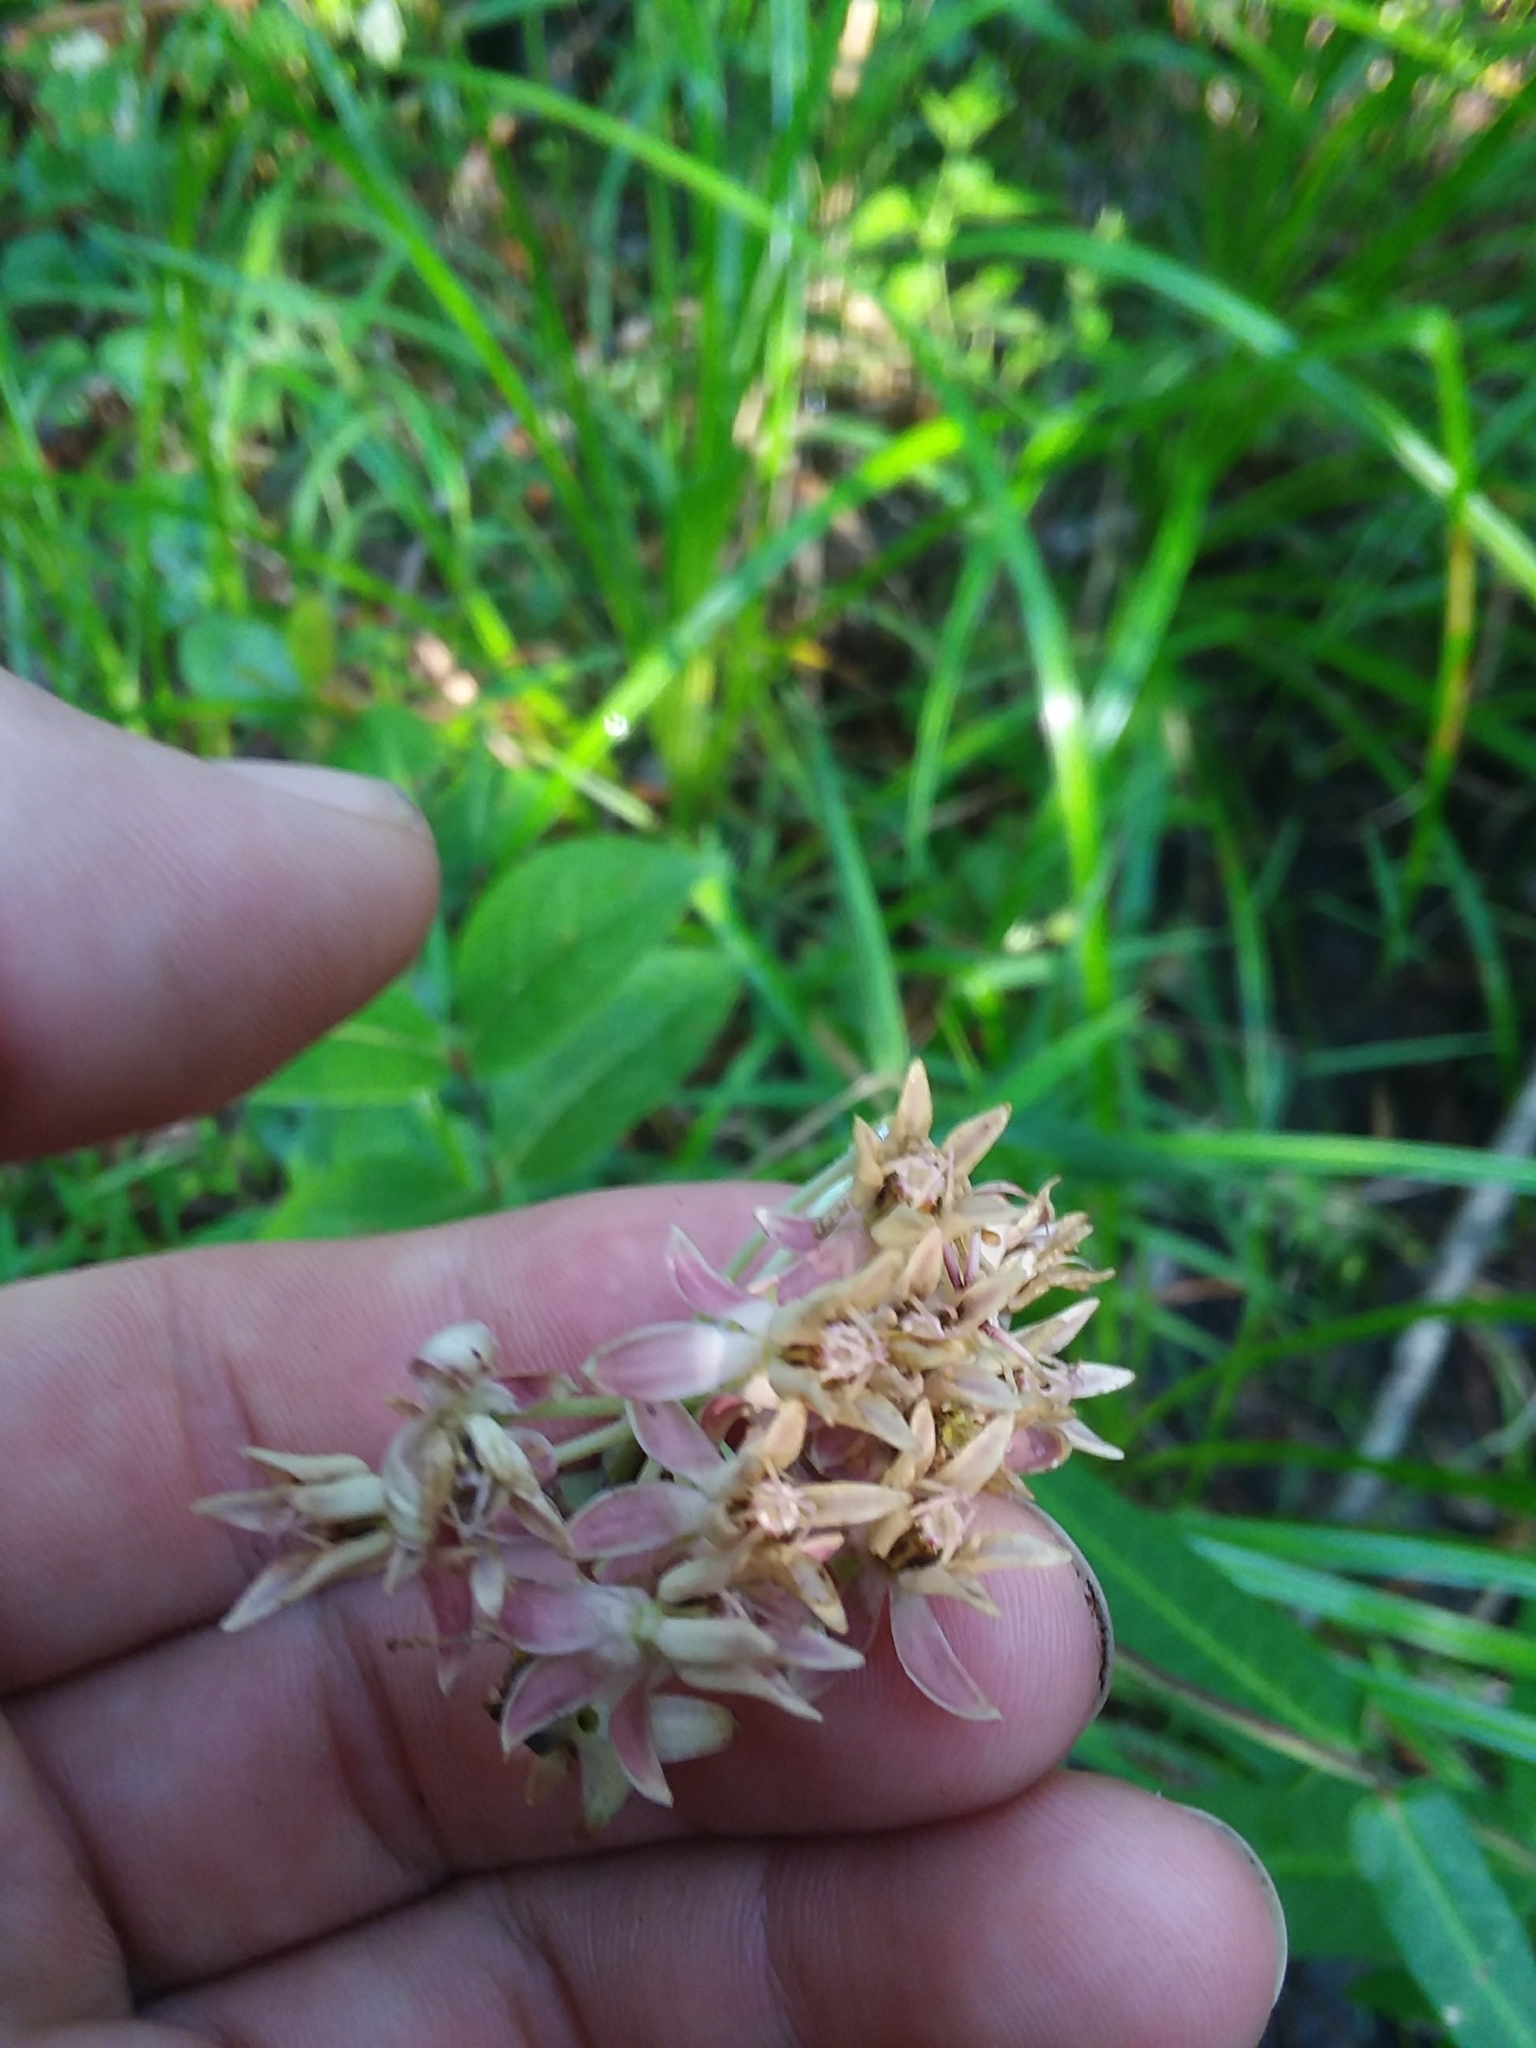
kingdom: Plantae
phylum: Tracheophyta
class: Magnoliopsida
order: Gentianales
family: Apocynaceae
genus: Asclepias
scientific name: Asclepias rubra
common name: Red milkweed
